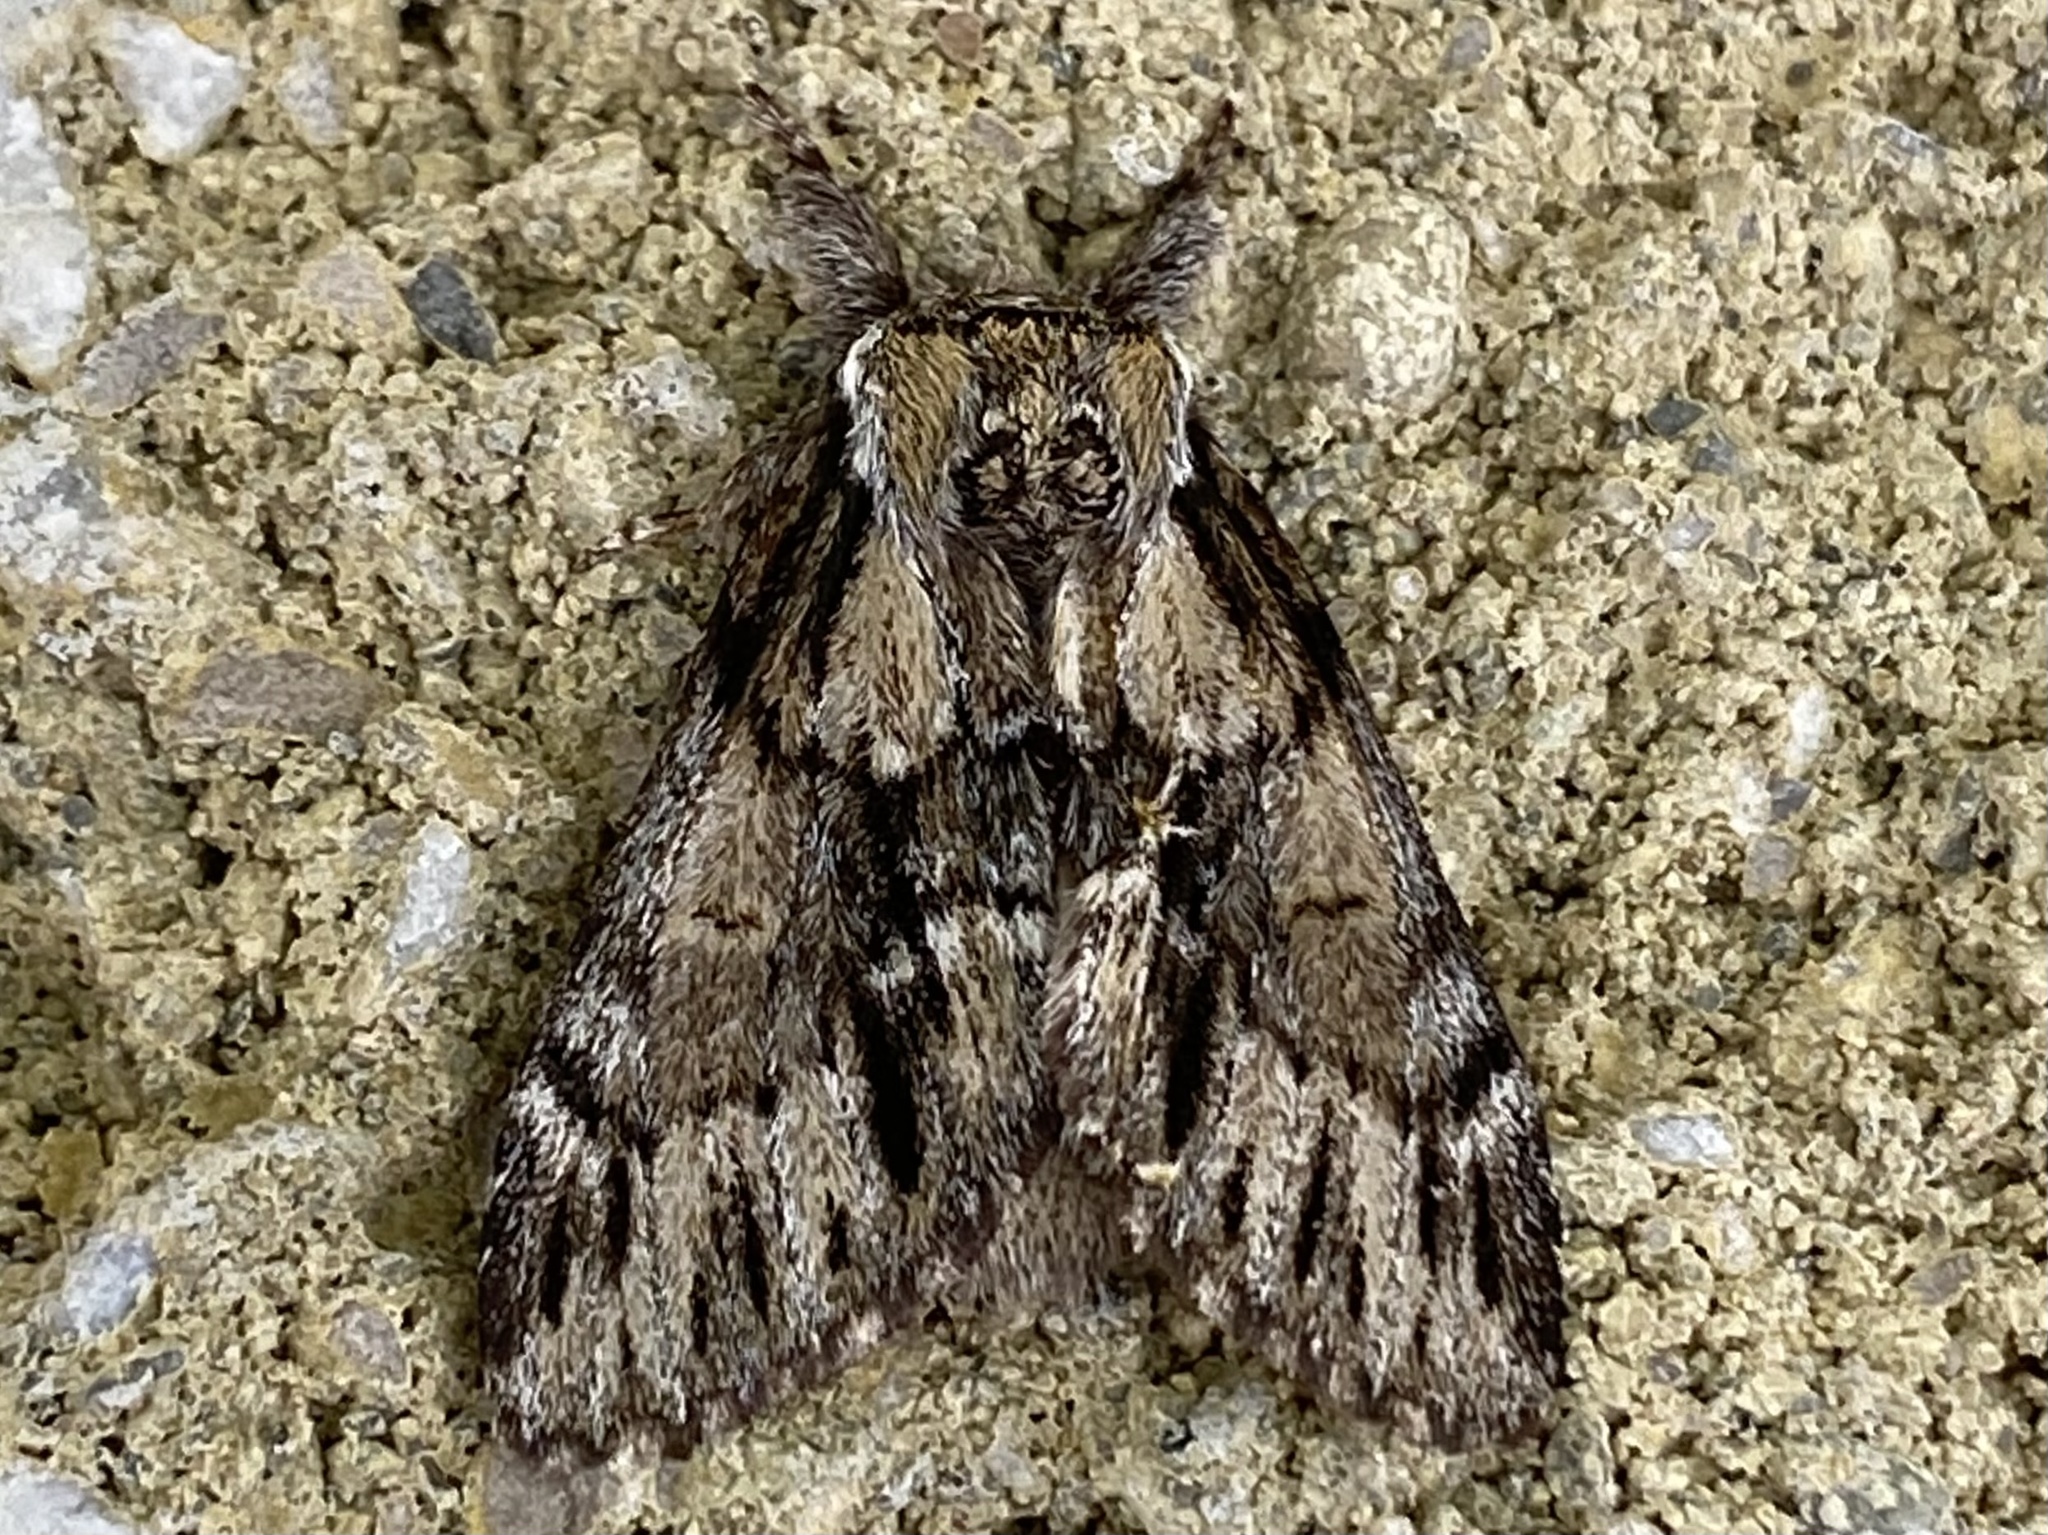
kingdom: Animalia
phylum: Arthropoda
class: Insecta
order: Lepidoptera
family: Notodontidae
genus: Paraeschra
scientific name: Paraeschra georgica
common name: Georgian prominent
